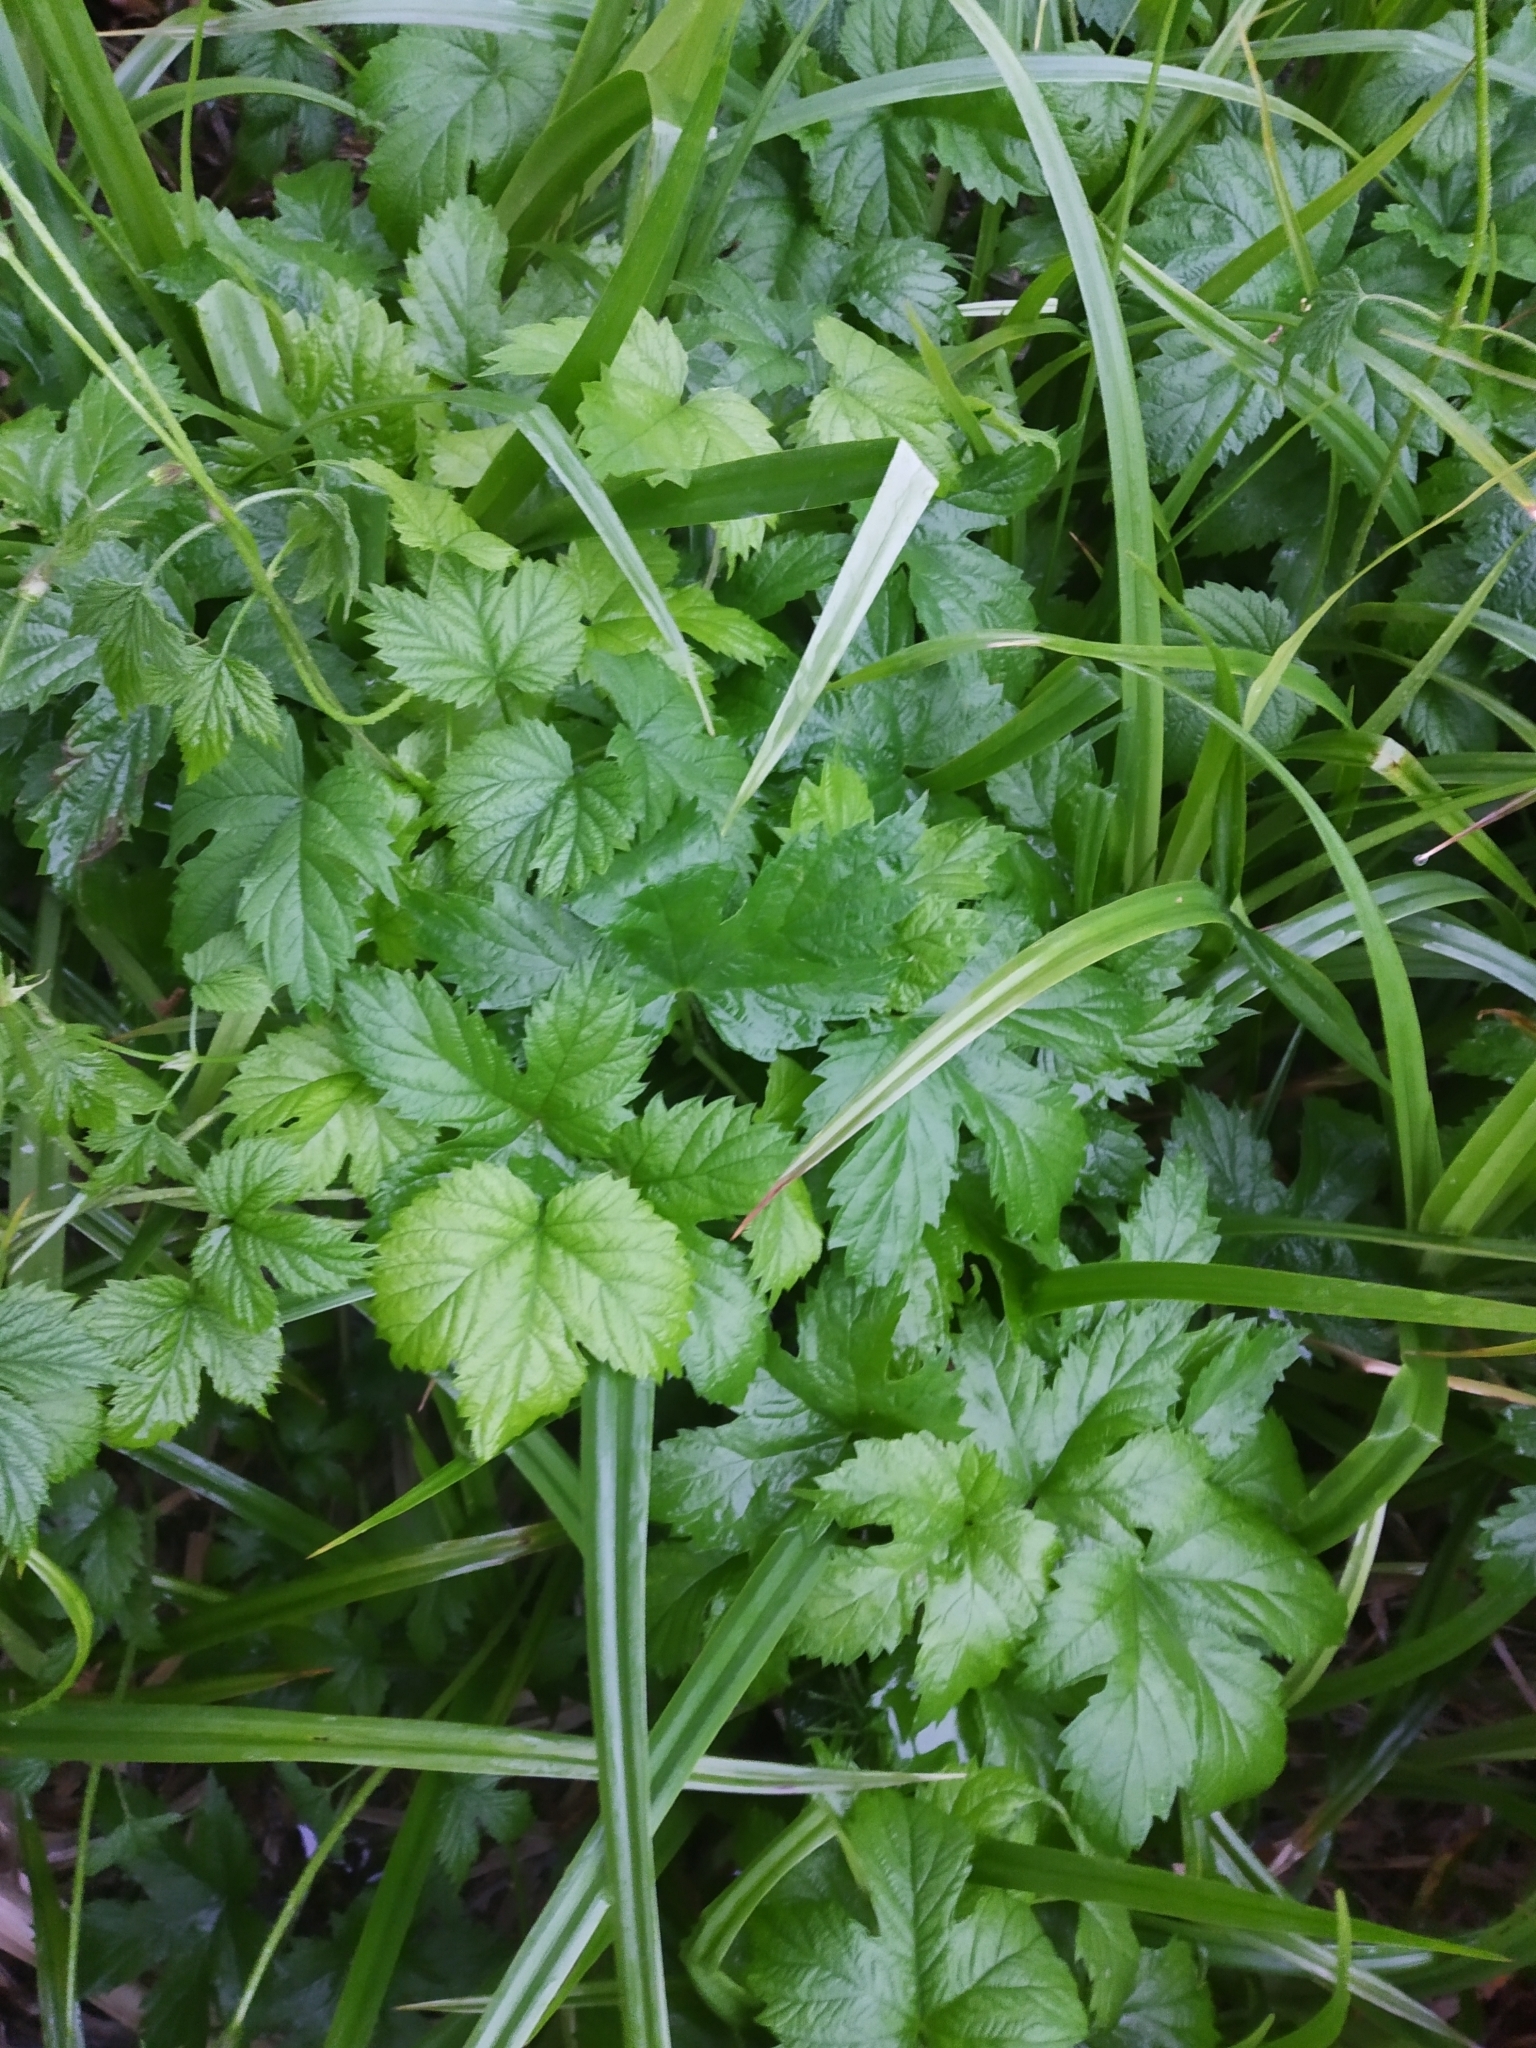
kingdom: Plantae
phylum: Tracheophyta
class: Magnoliopsida
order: Rosales
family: Cannabaceae
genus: Humulus
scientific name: Humulus lupulus
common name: Hop
